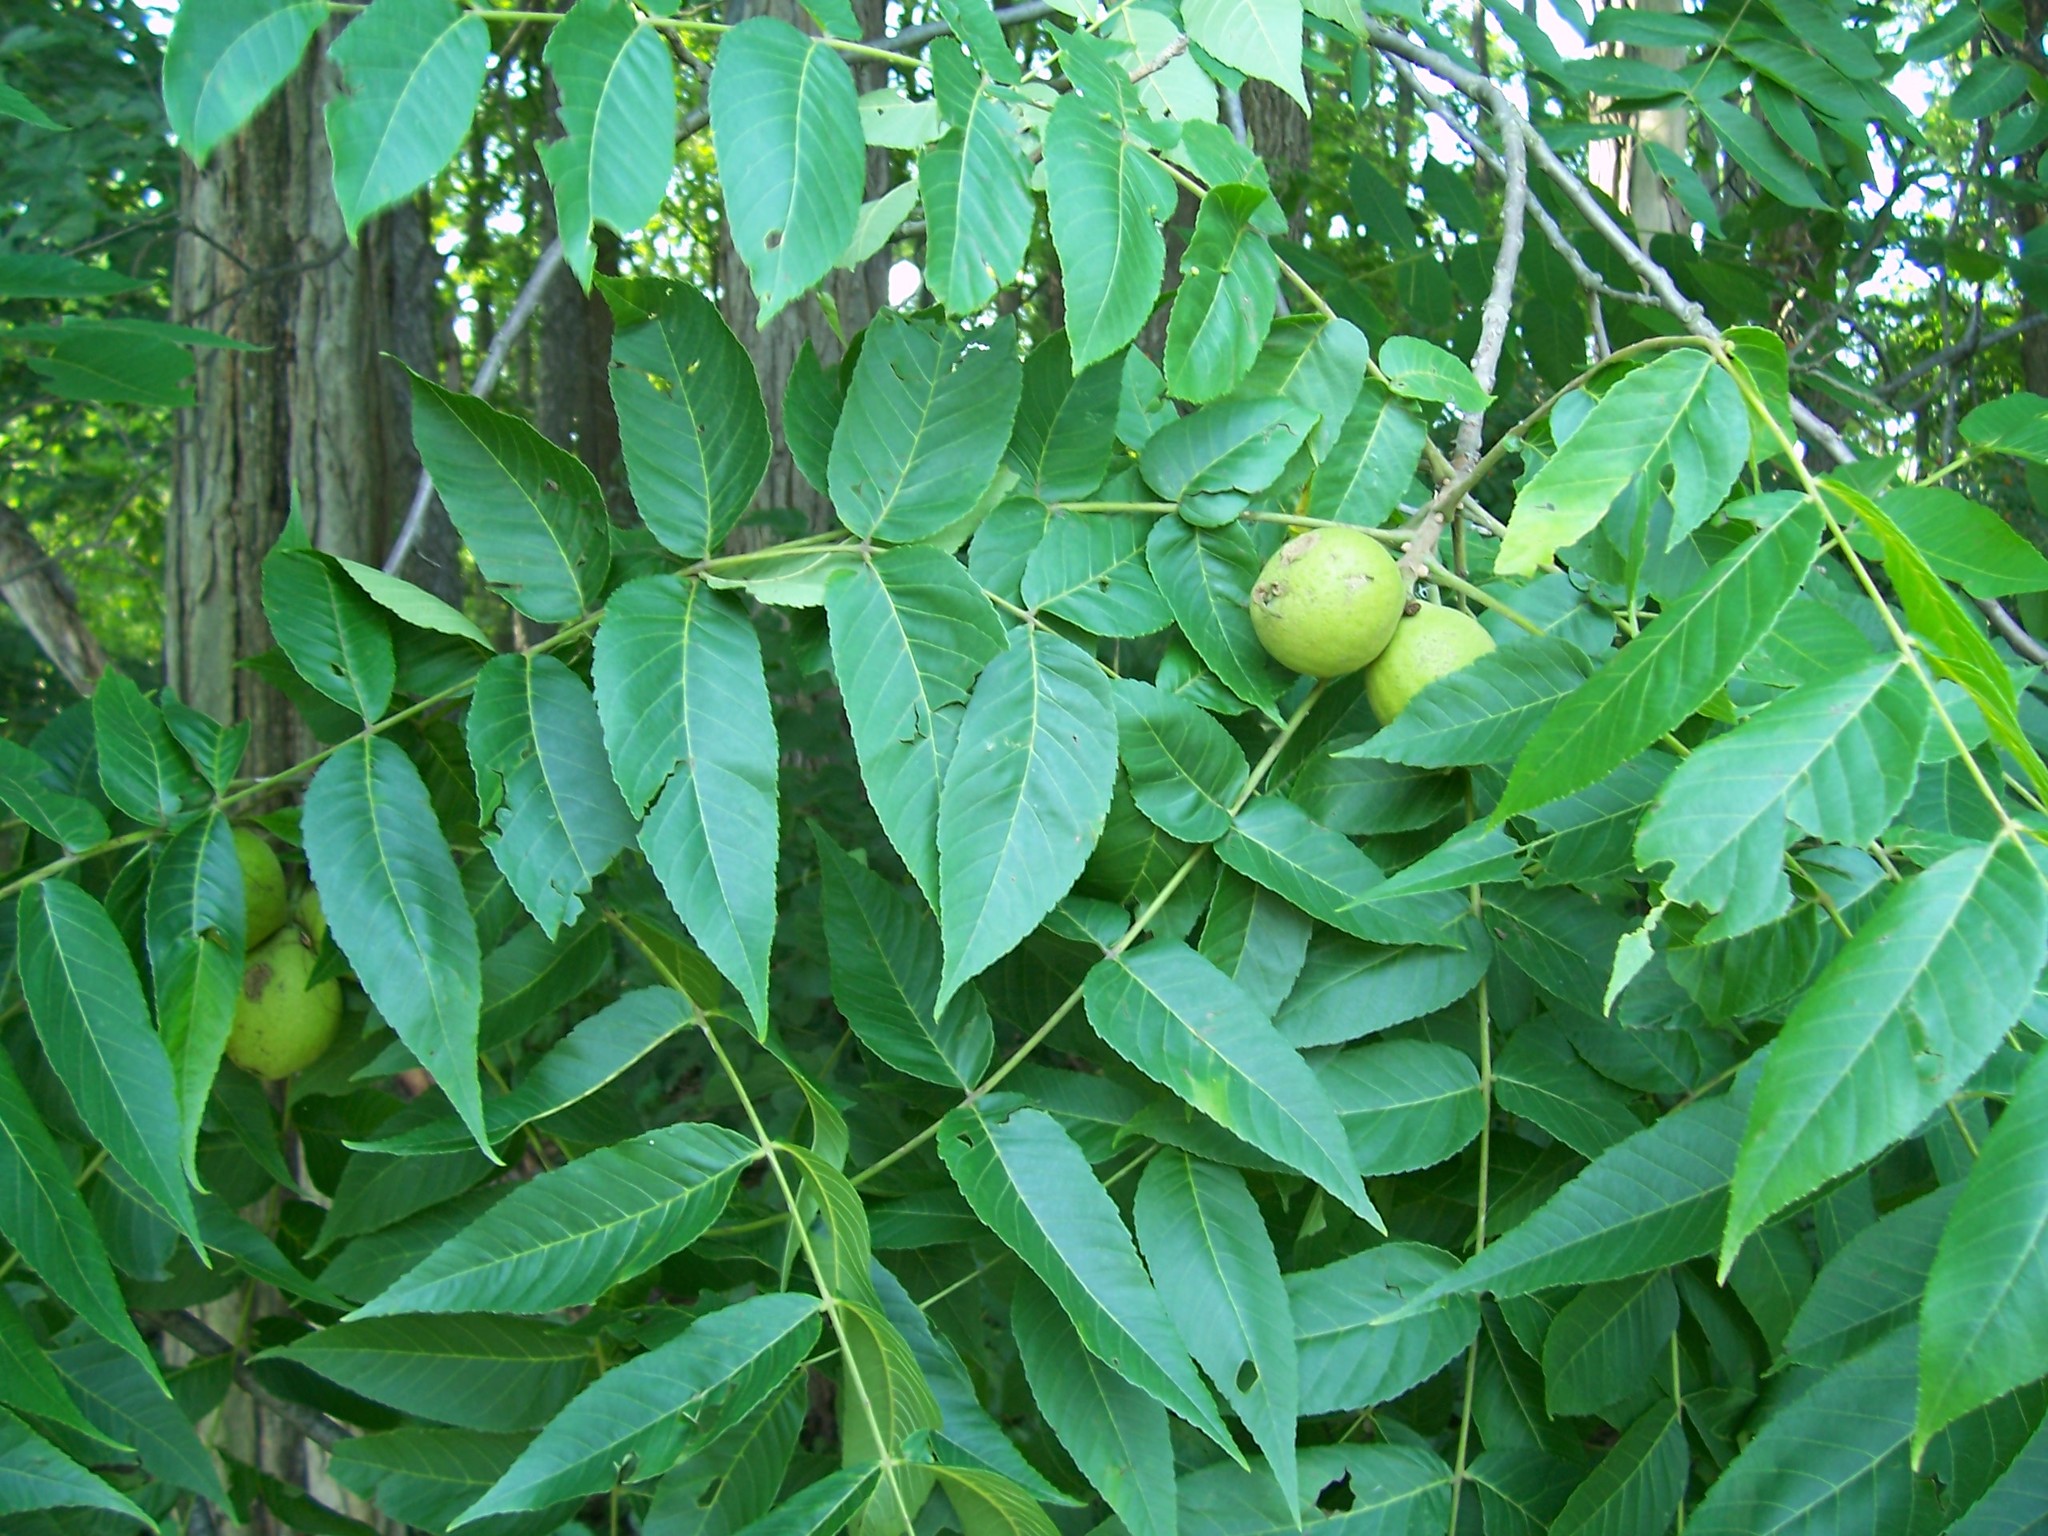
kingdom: Plantae
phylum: Tracheophyta
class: Magnoliopsida
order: Fagales
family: Juglandaceae
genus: Juglans
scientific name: Juglans nigra
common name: Black walnut
